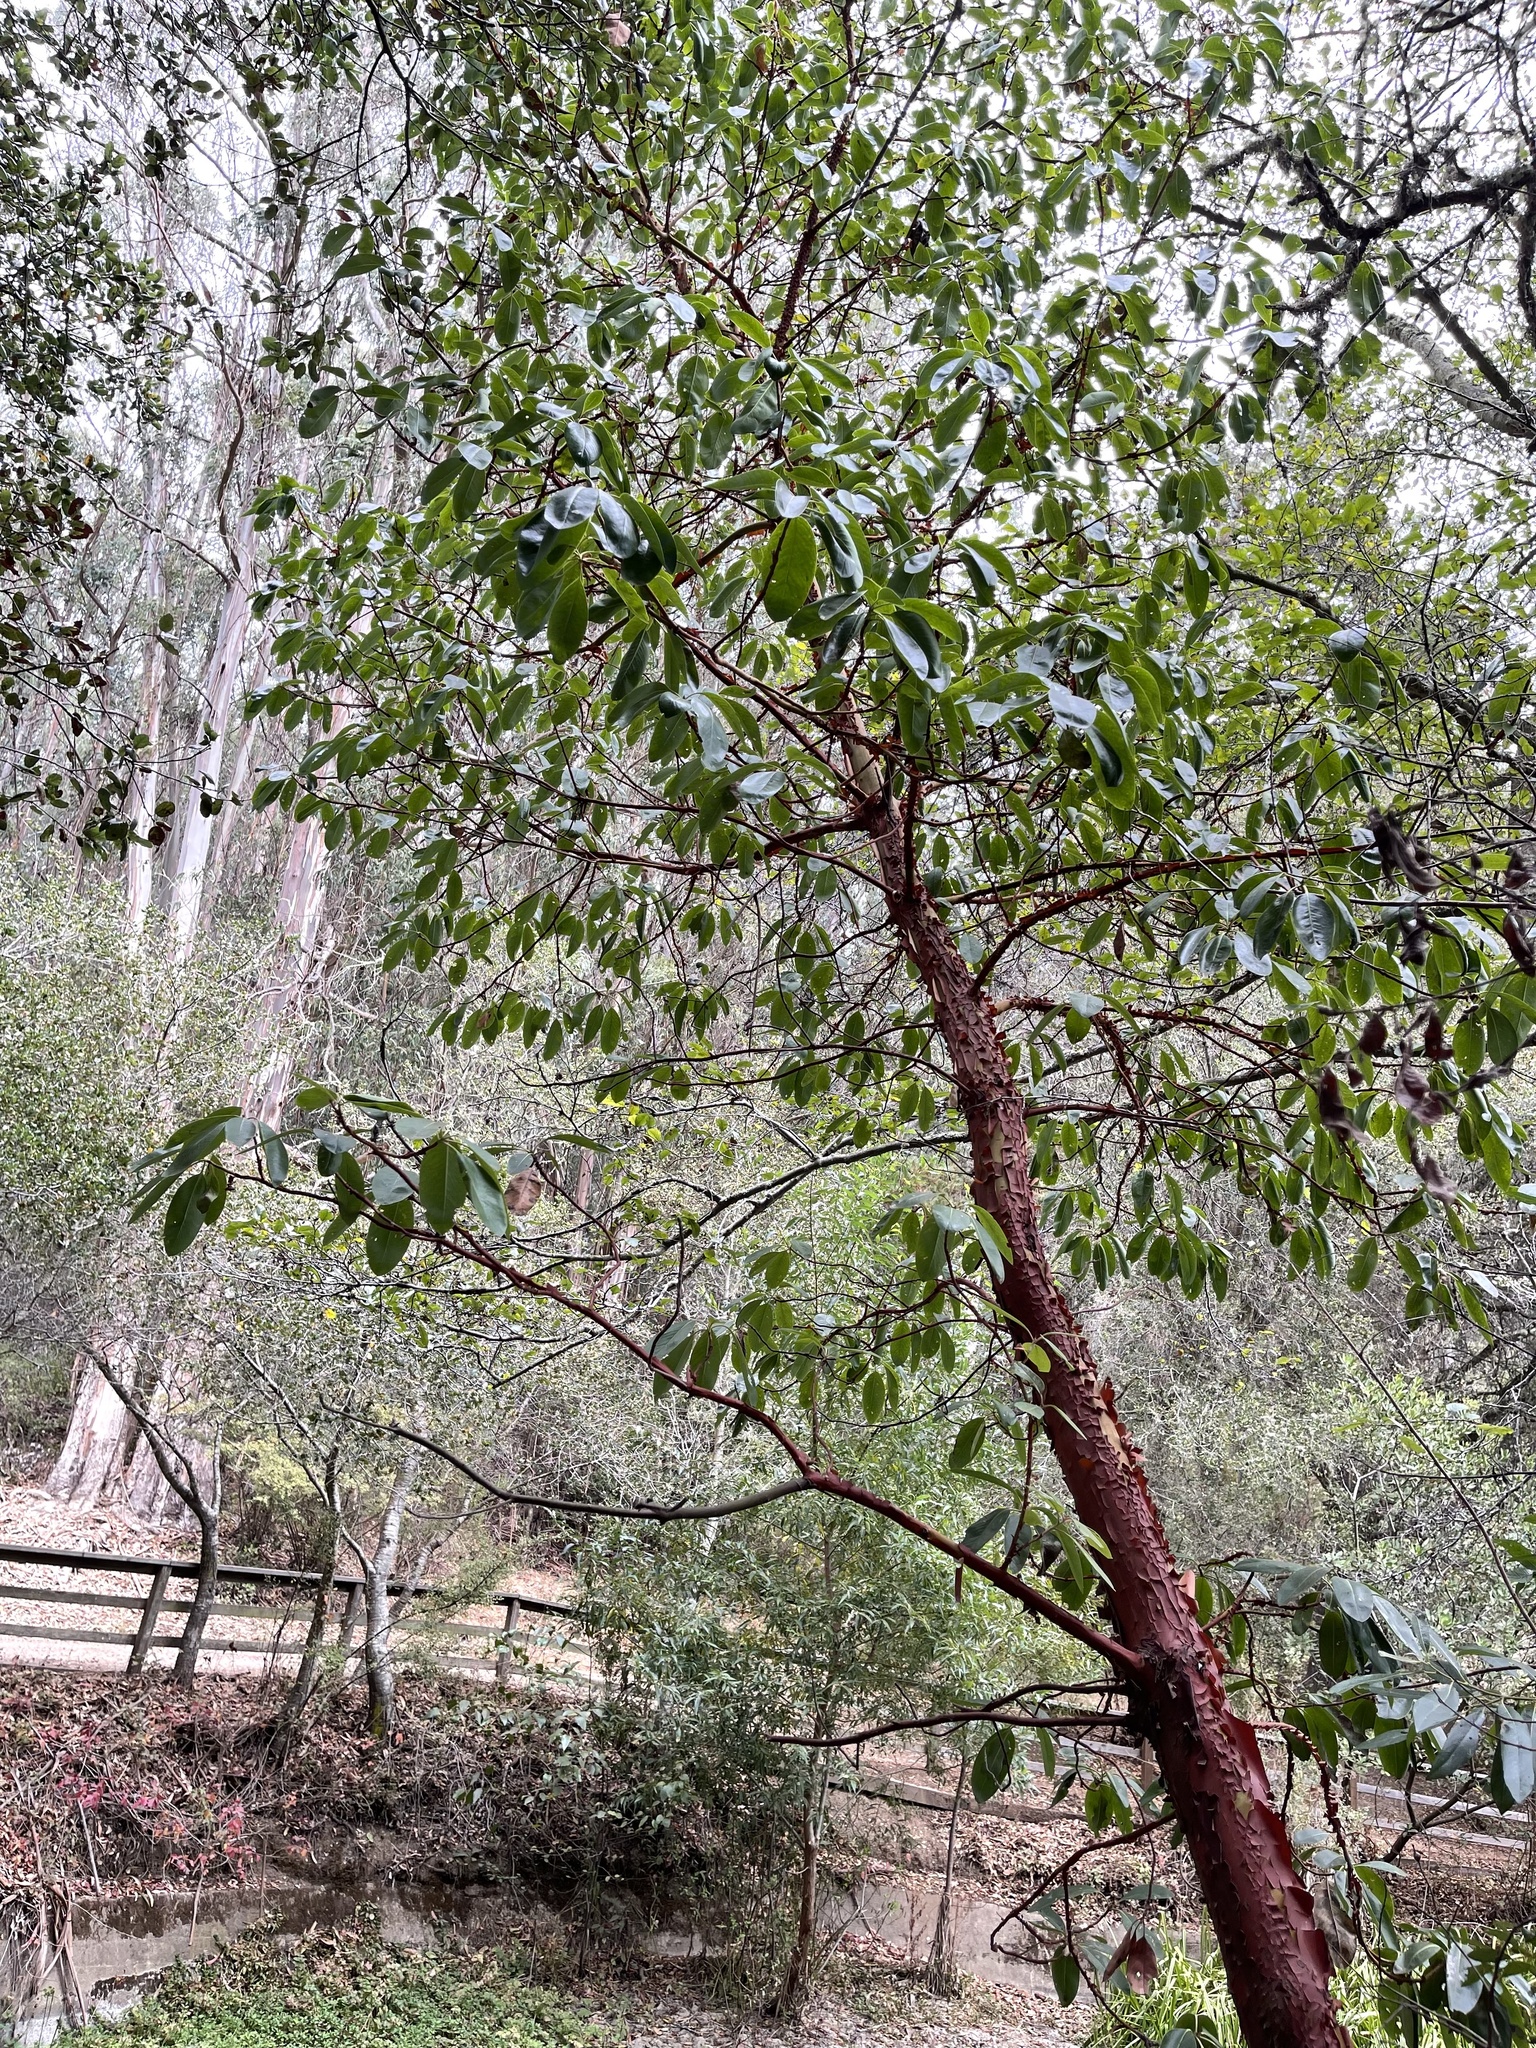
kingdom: Plantae
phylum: Tracheophyta
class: Magnoliopsida
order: Ericales
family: Ericaceae
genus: Arbutus
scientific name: Arbutus menziesii
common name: Pacific madrone
